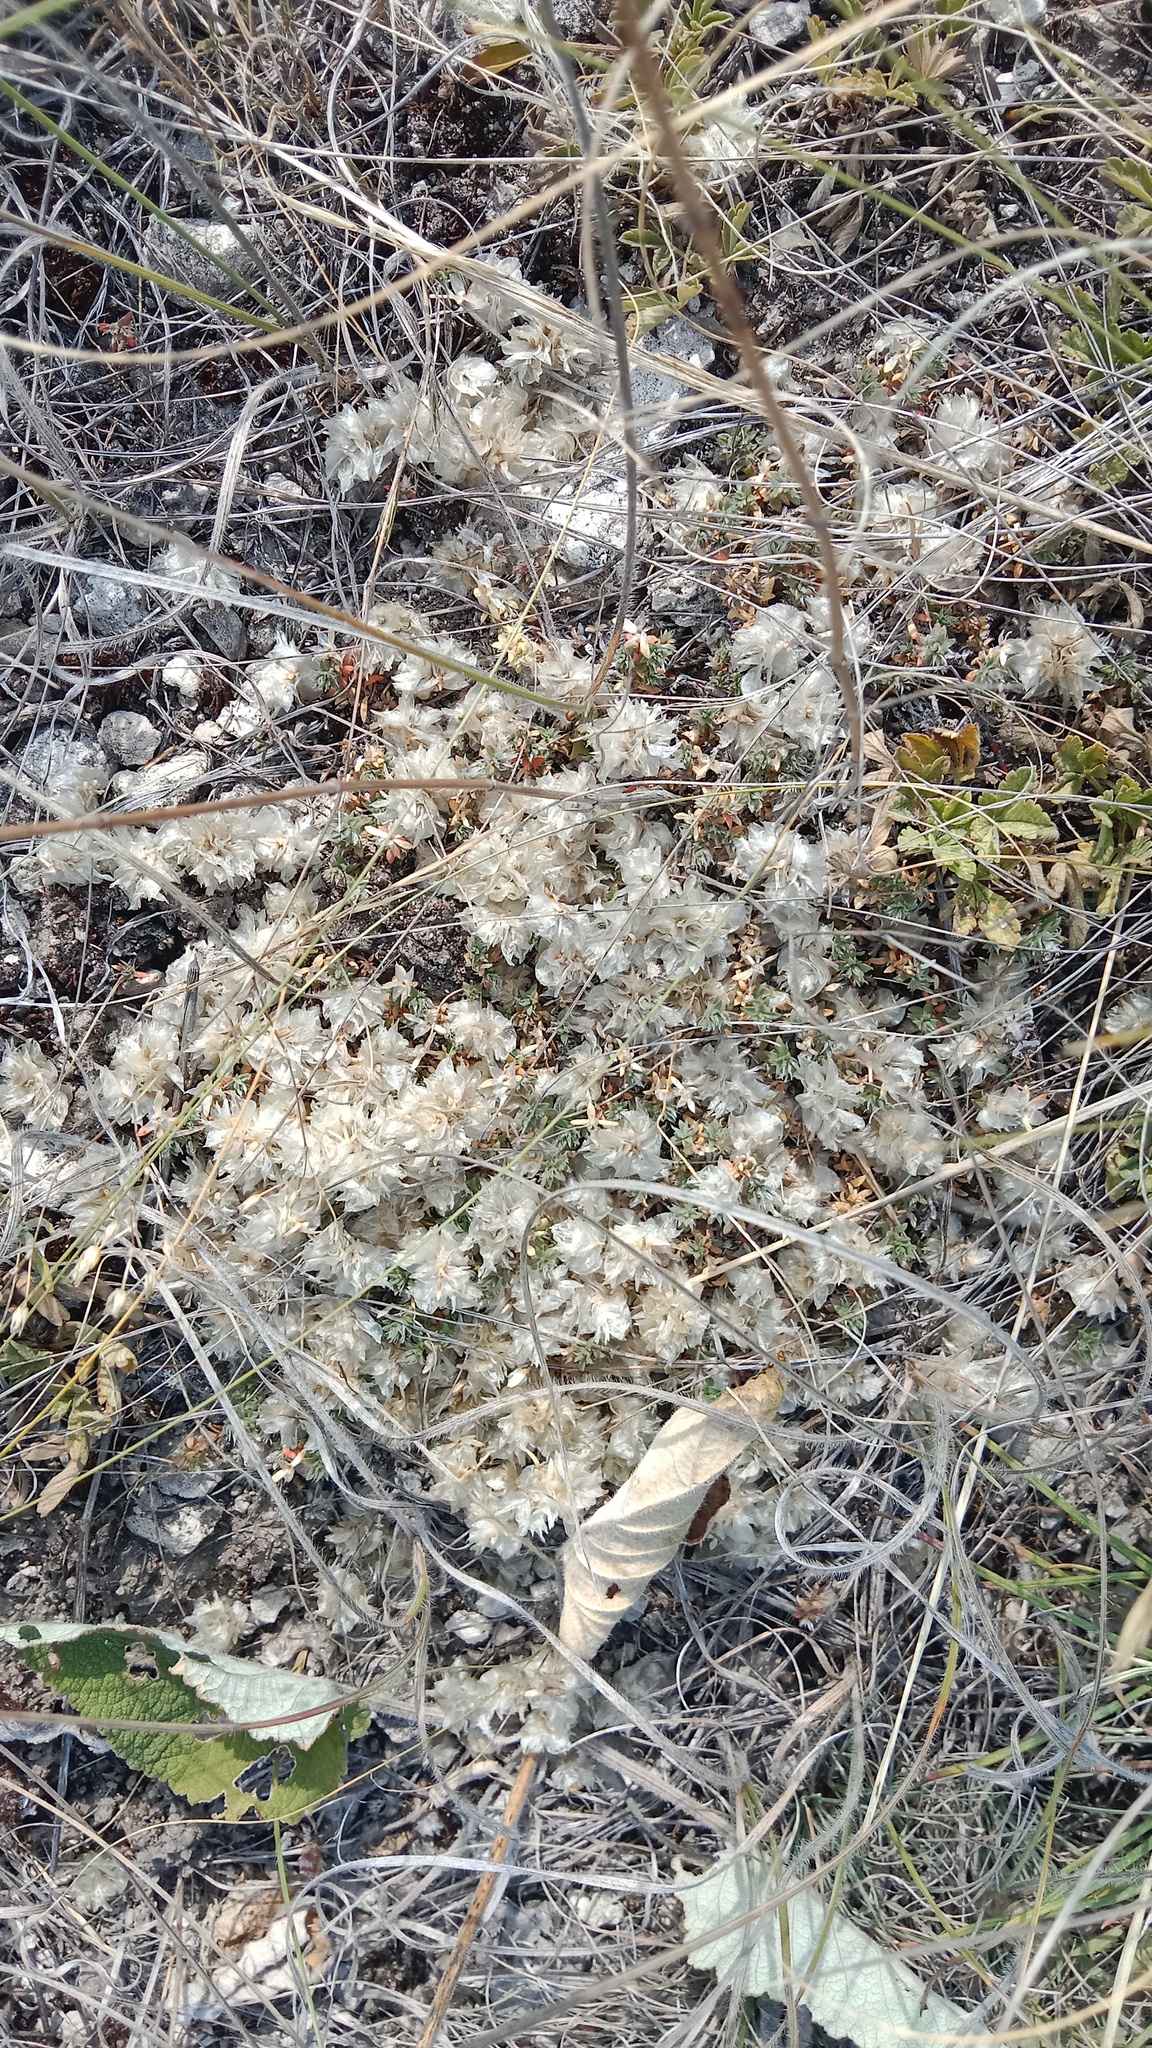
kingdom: Plantae
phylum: Tracheophyta
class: Magnoliopsida
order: Caryophyllales
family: Caryophyllaceae
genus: Paronychia
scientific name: Paronychia cephalotes
